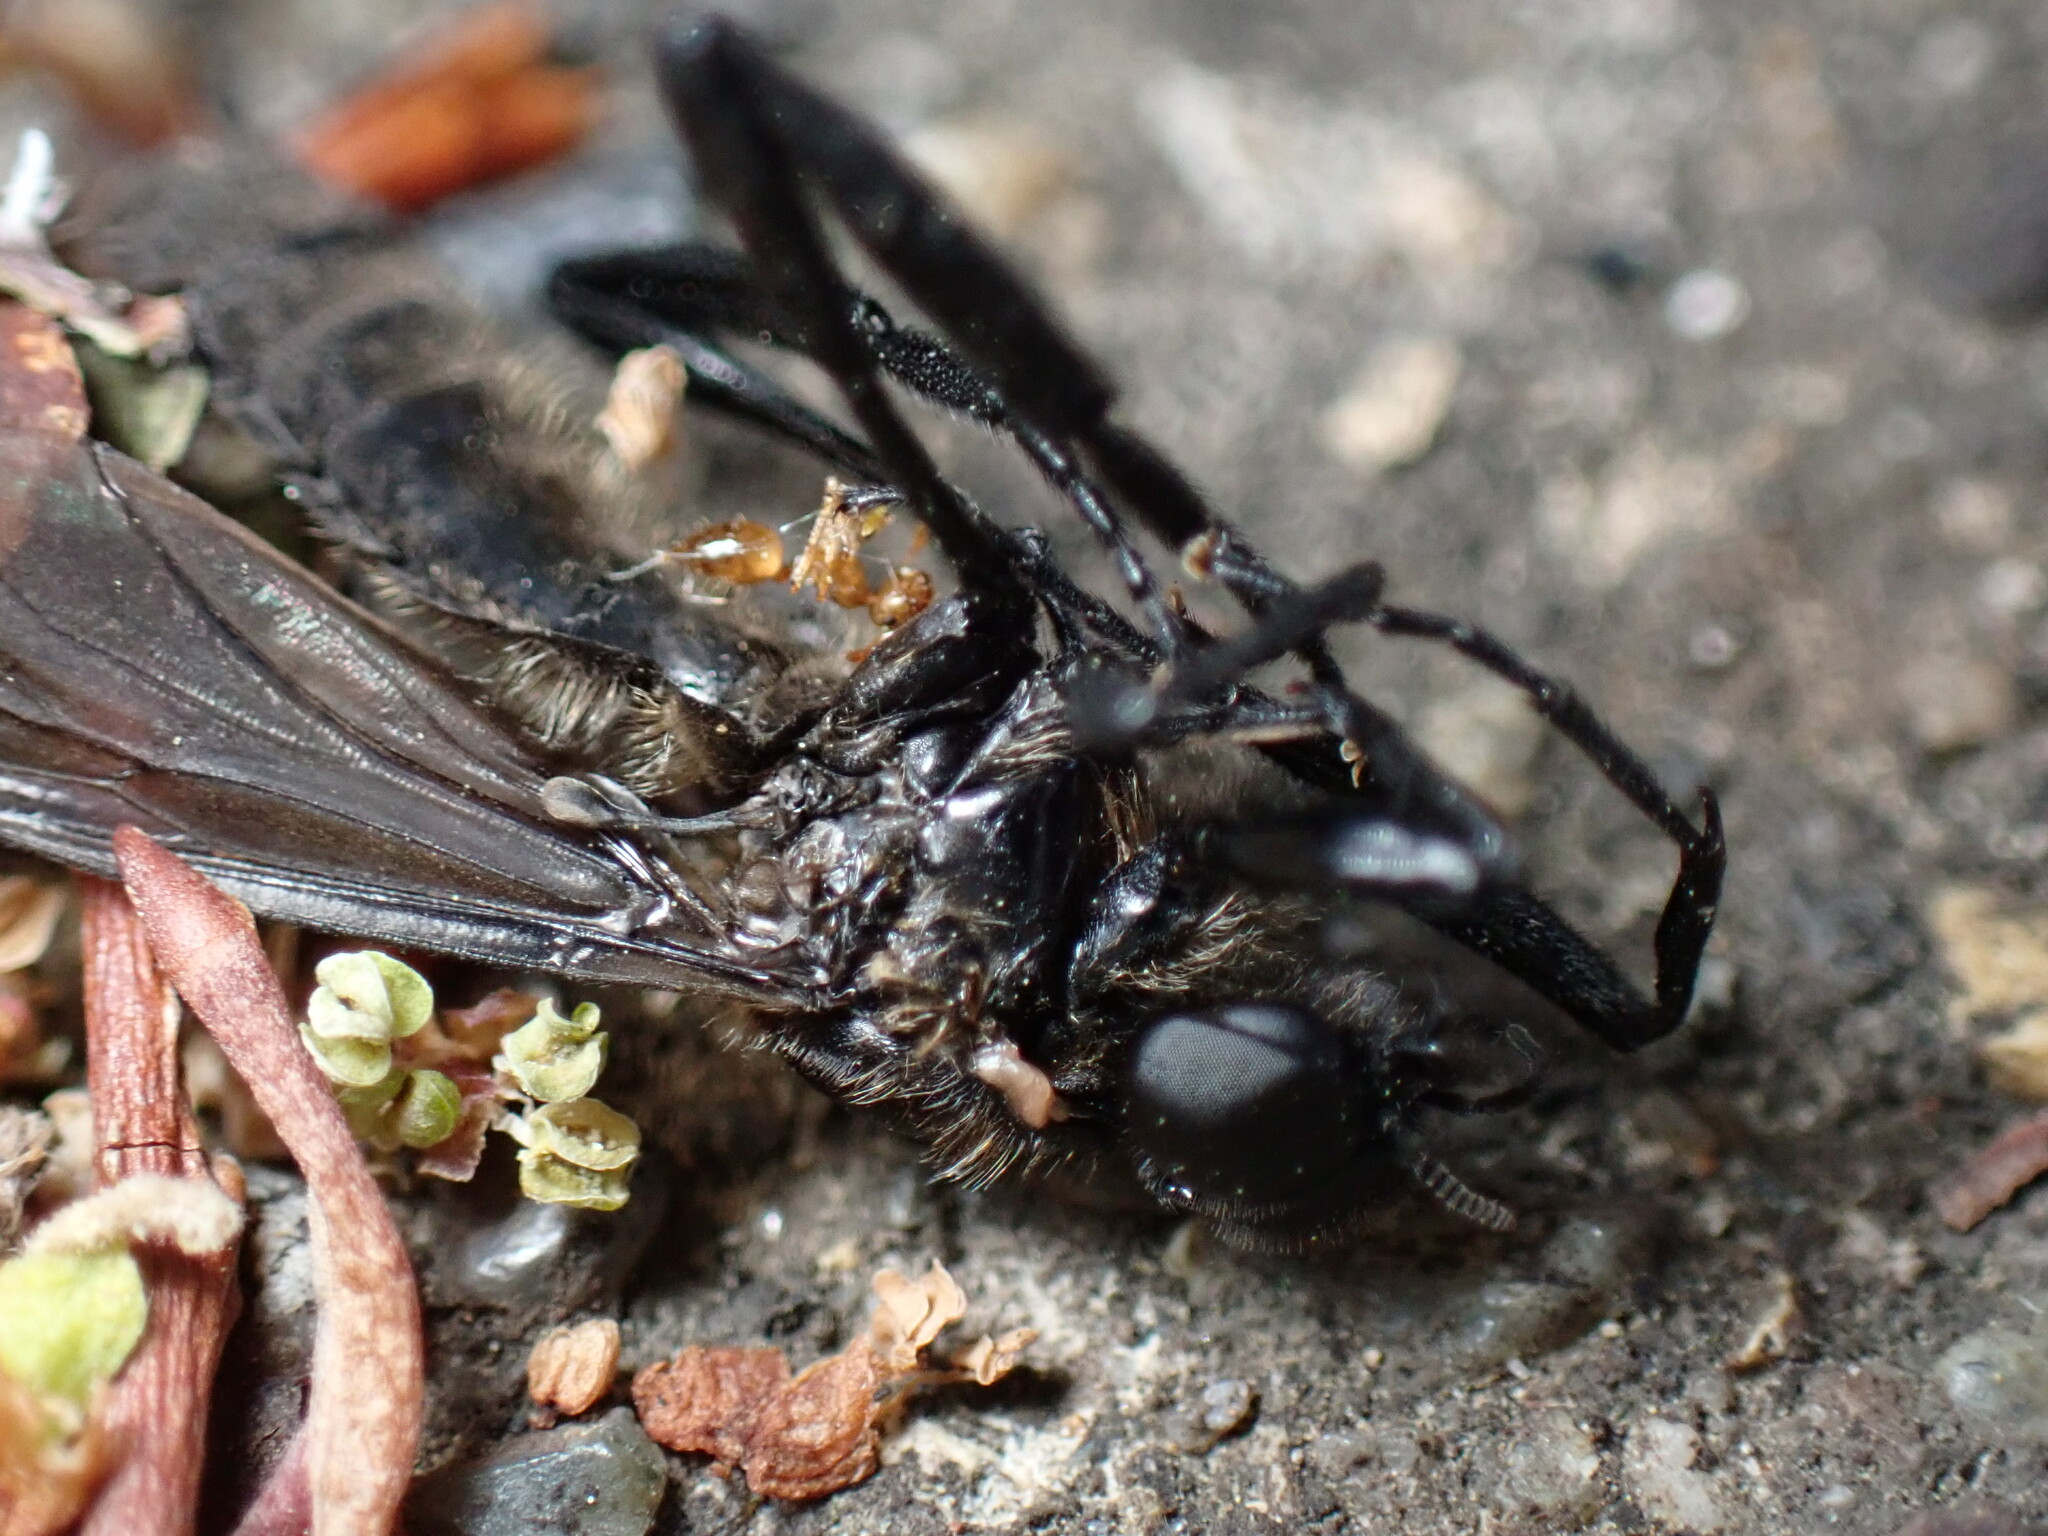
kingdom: Animalia
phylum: Arthropoda
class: Insecta
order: Hymenoptera
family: Formicidae
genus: Crematogaster
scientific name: Crematogaster osakensis
